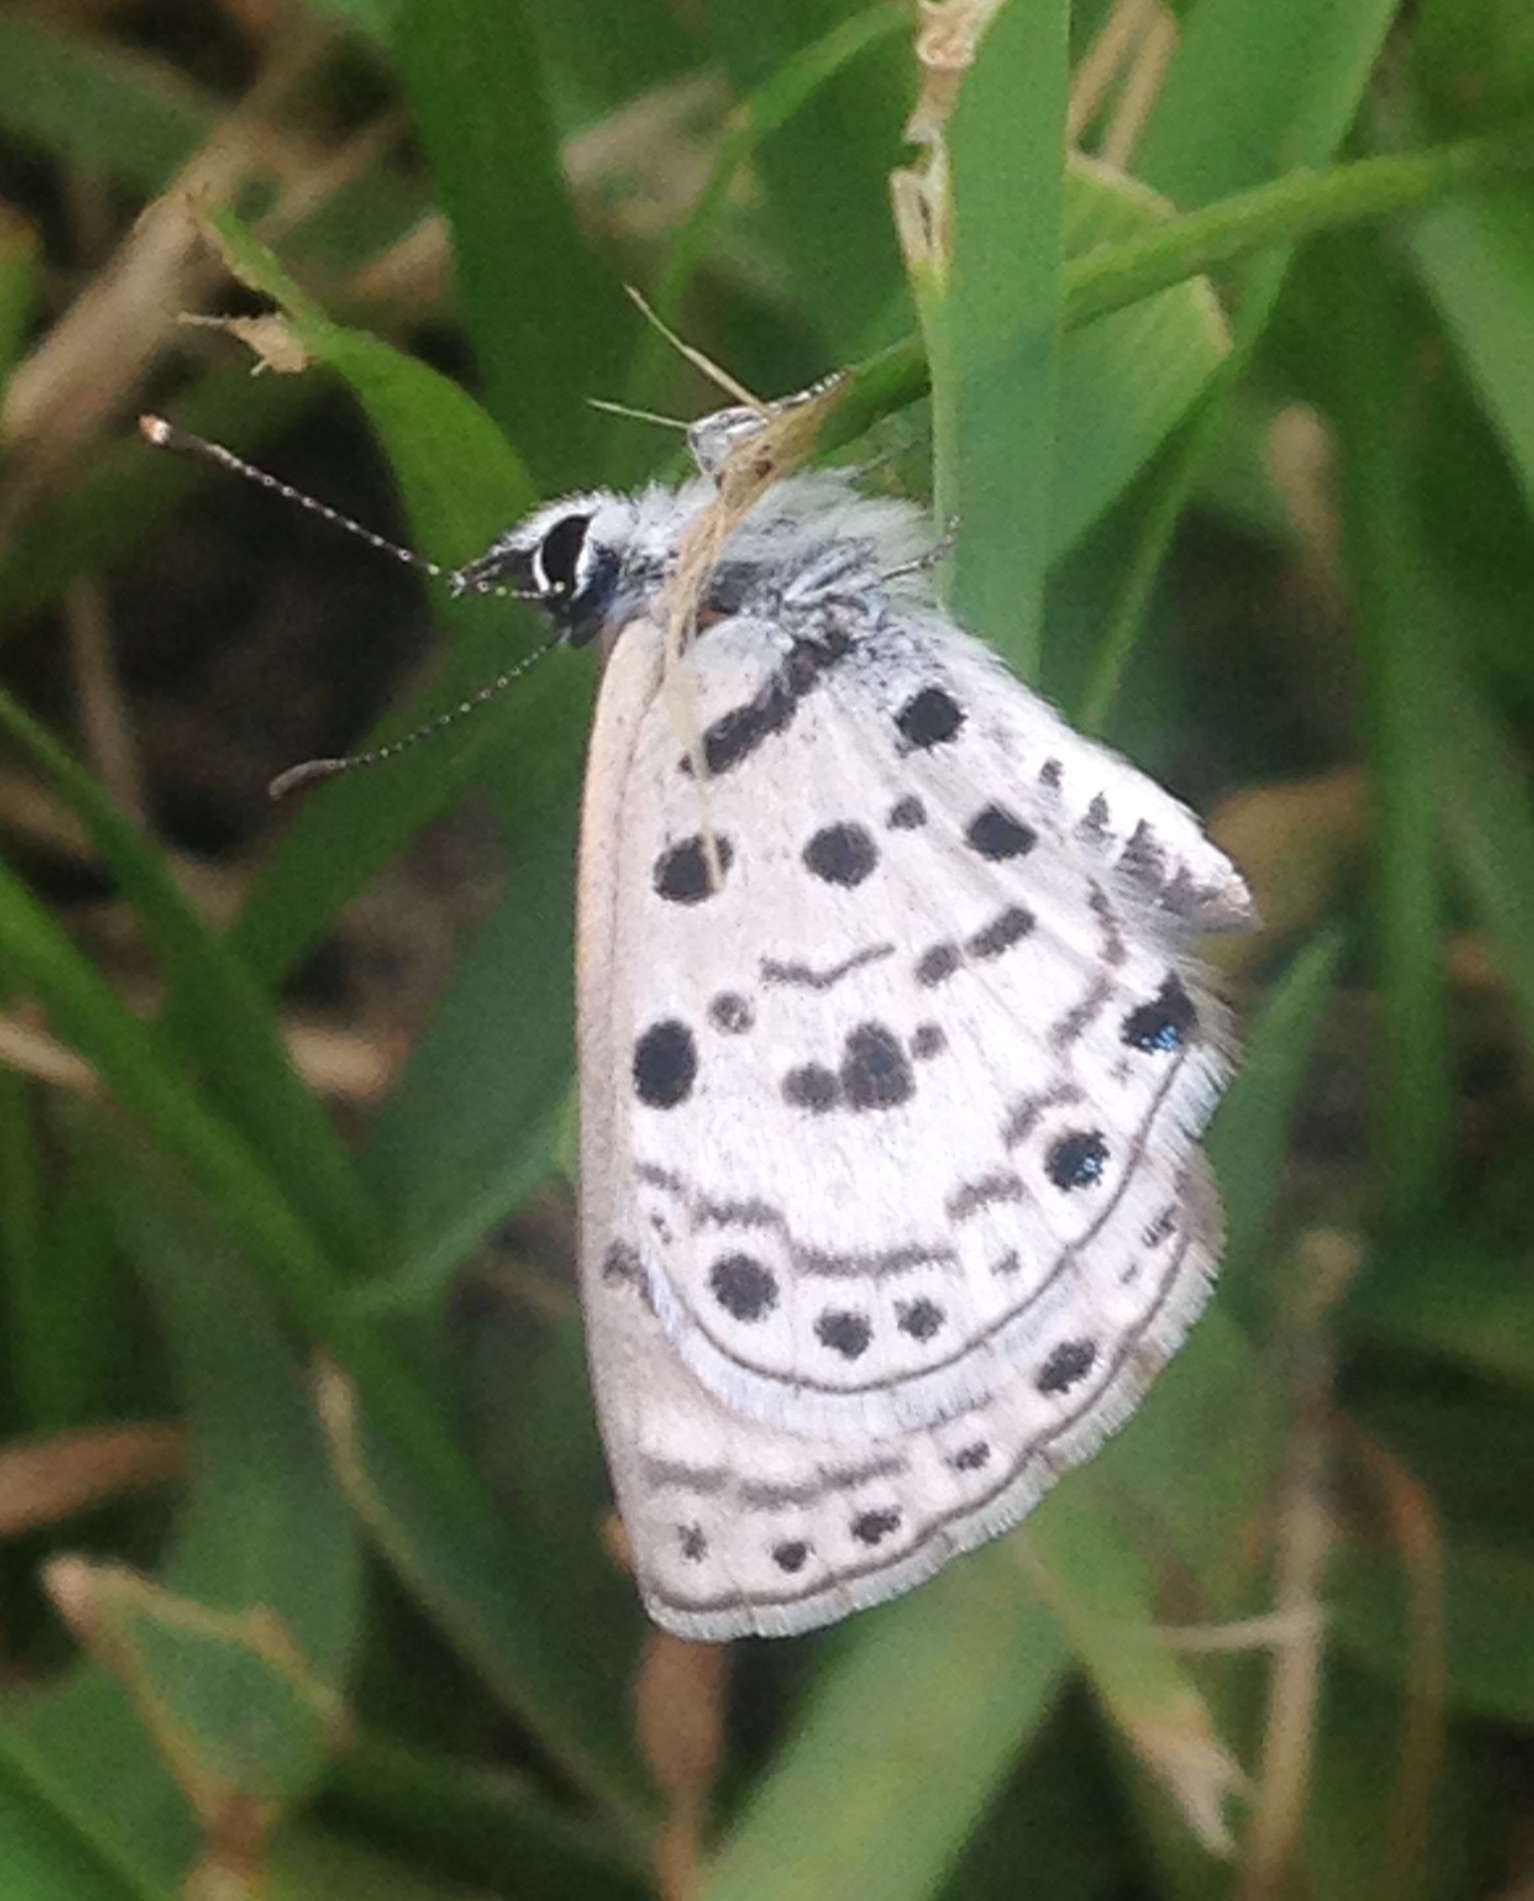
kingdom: Animalia
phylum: Arthropoda
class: Insecta
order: Lepidoptera
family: Lycaenidae
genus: Azanus
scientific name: Azanus moriqua
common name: Thorn-tree babul blue
